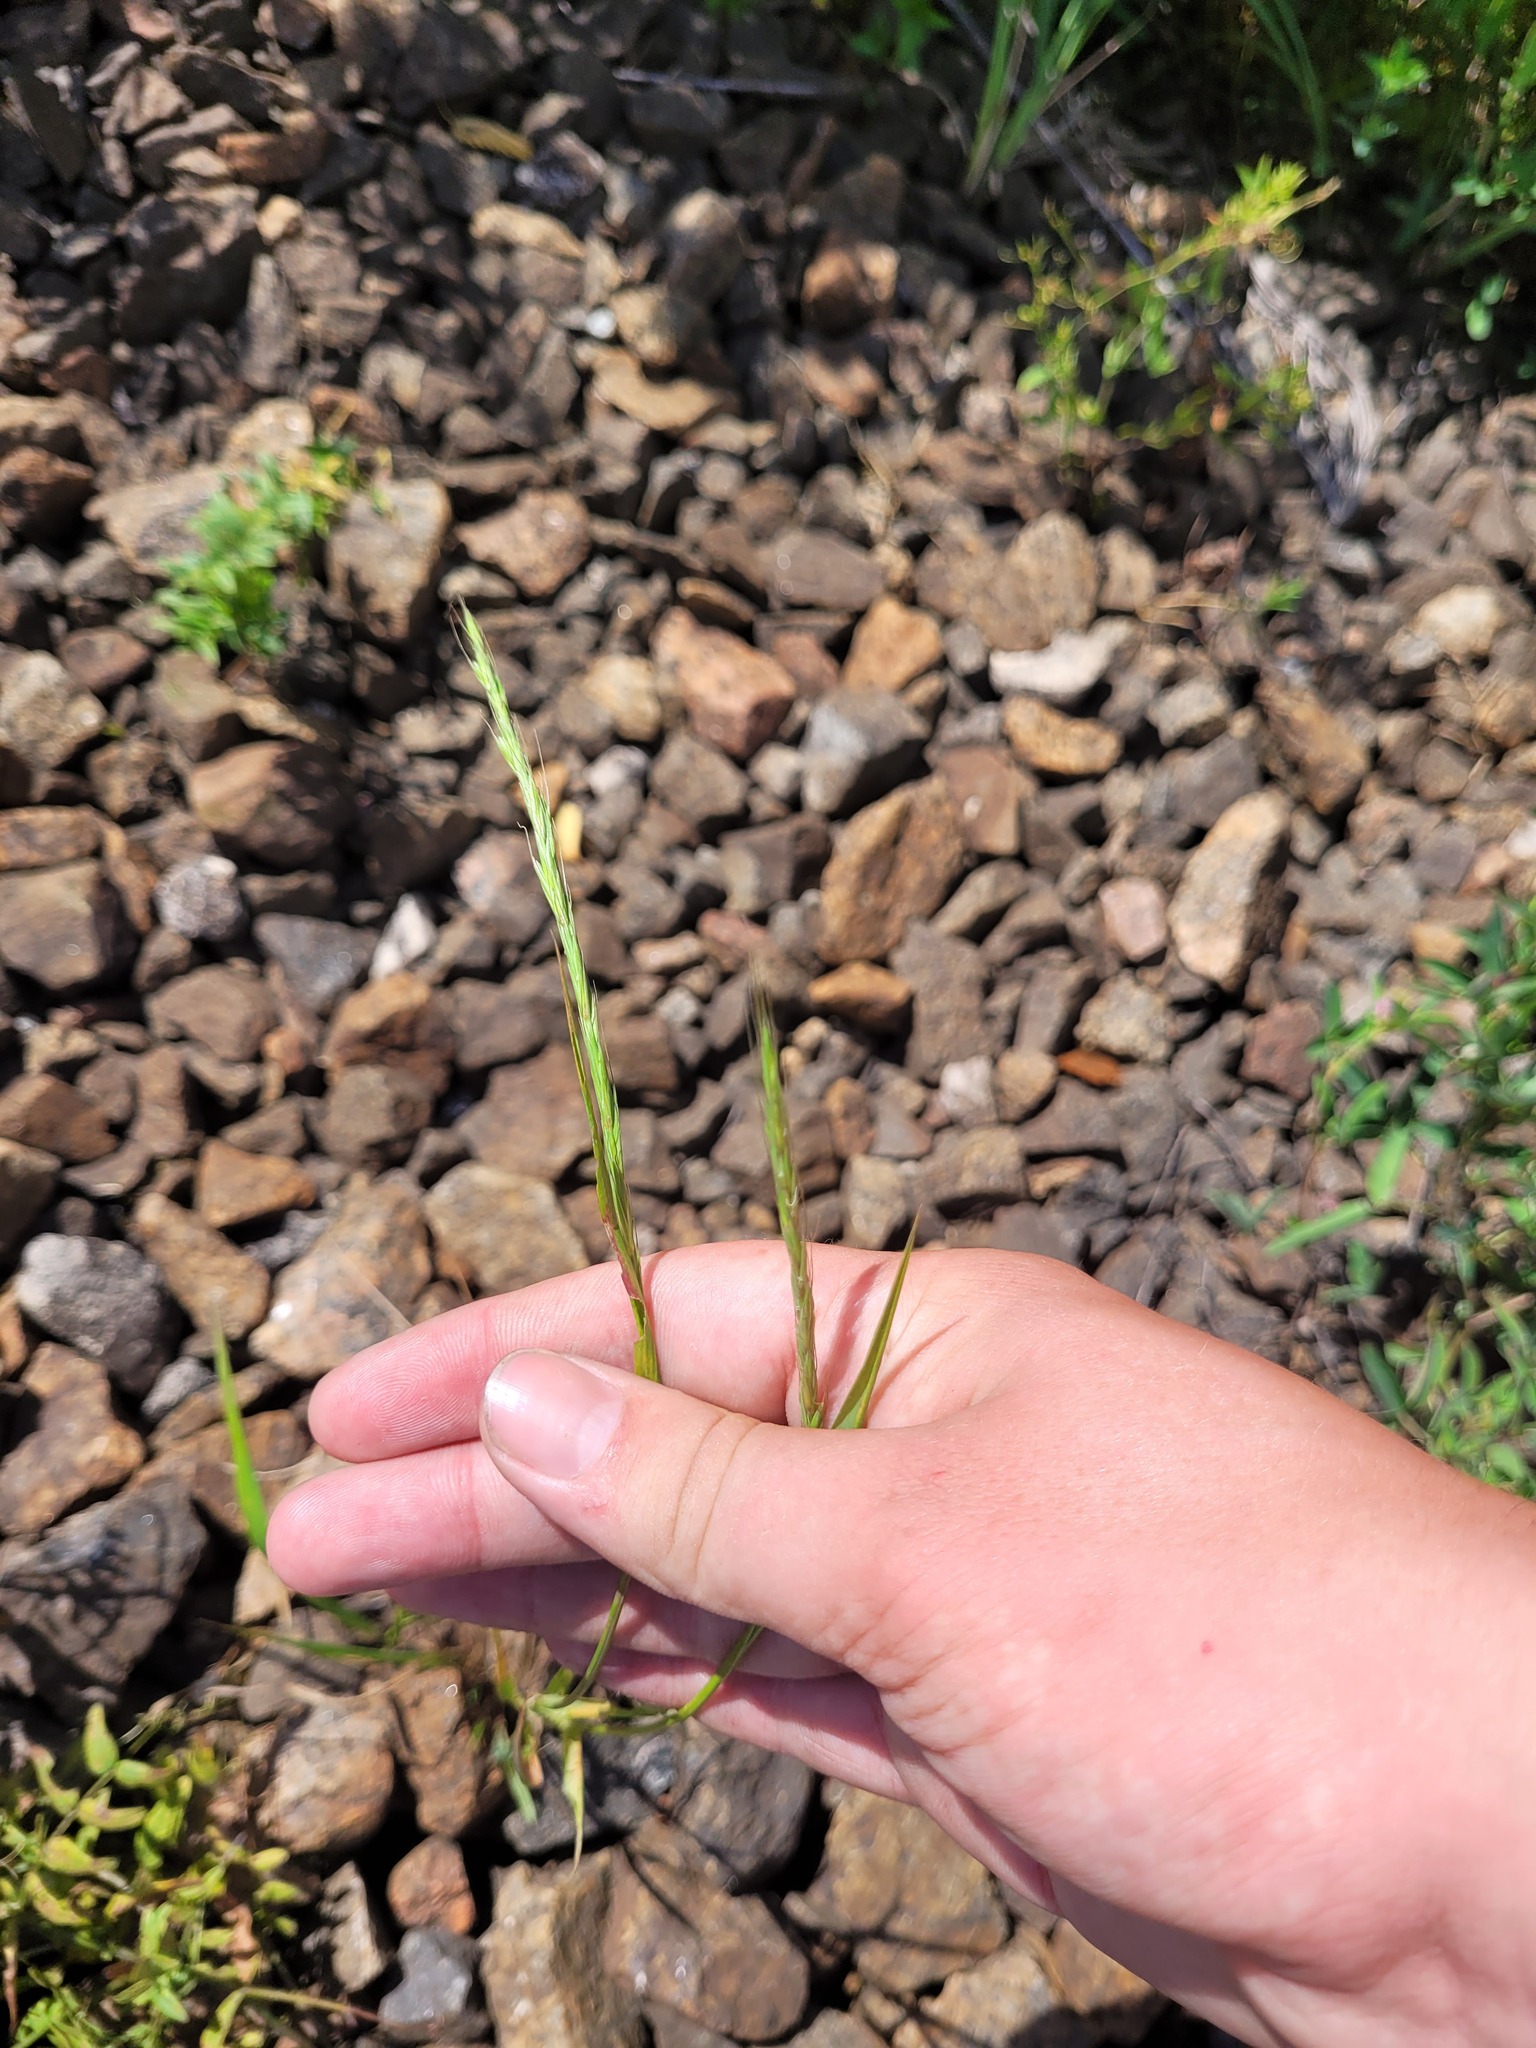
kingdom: Plantae
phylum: Tracheophyta
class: Liliopsida
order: Poales
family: Poaceae
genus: Elymus
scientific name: Elymus caninus
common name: Bearded couch
